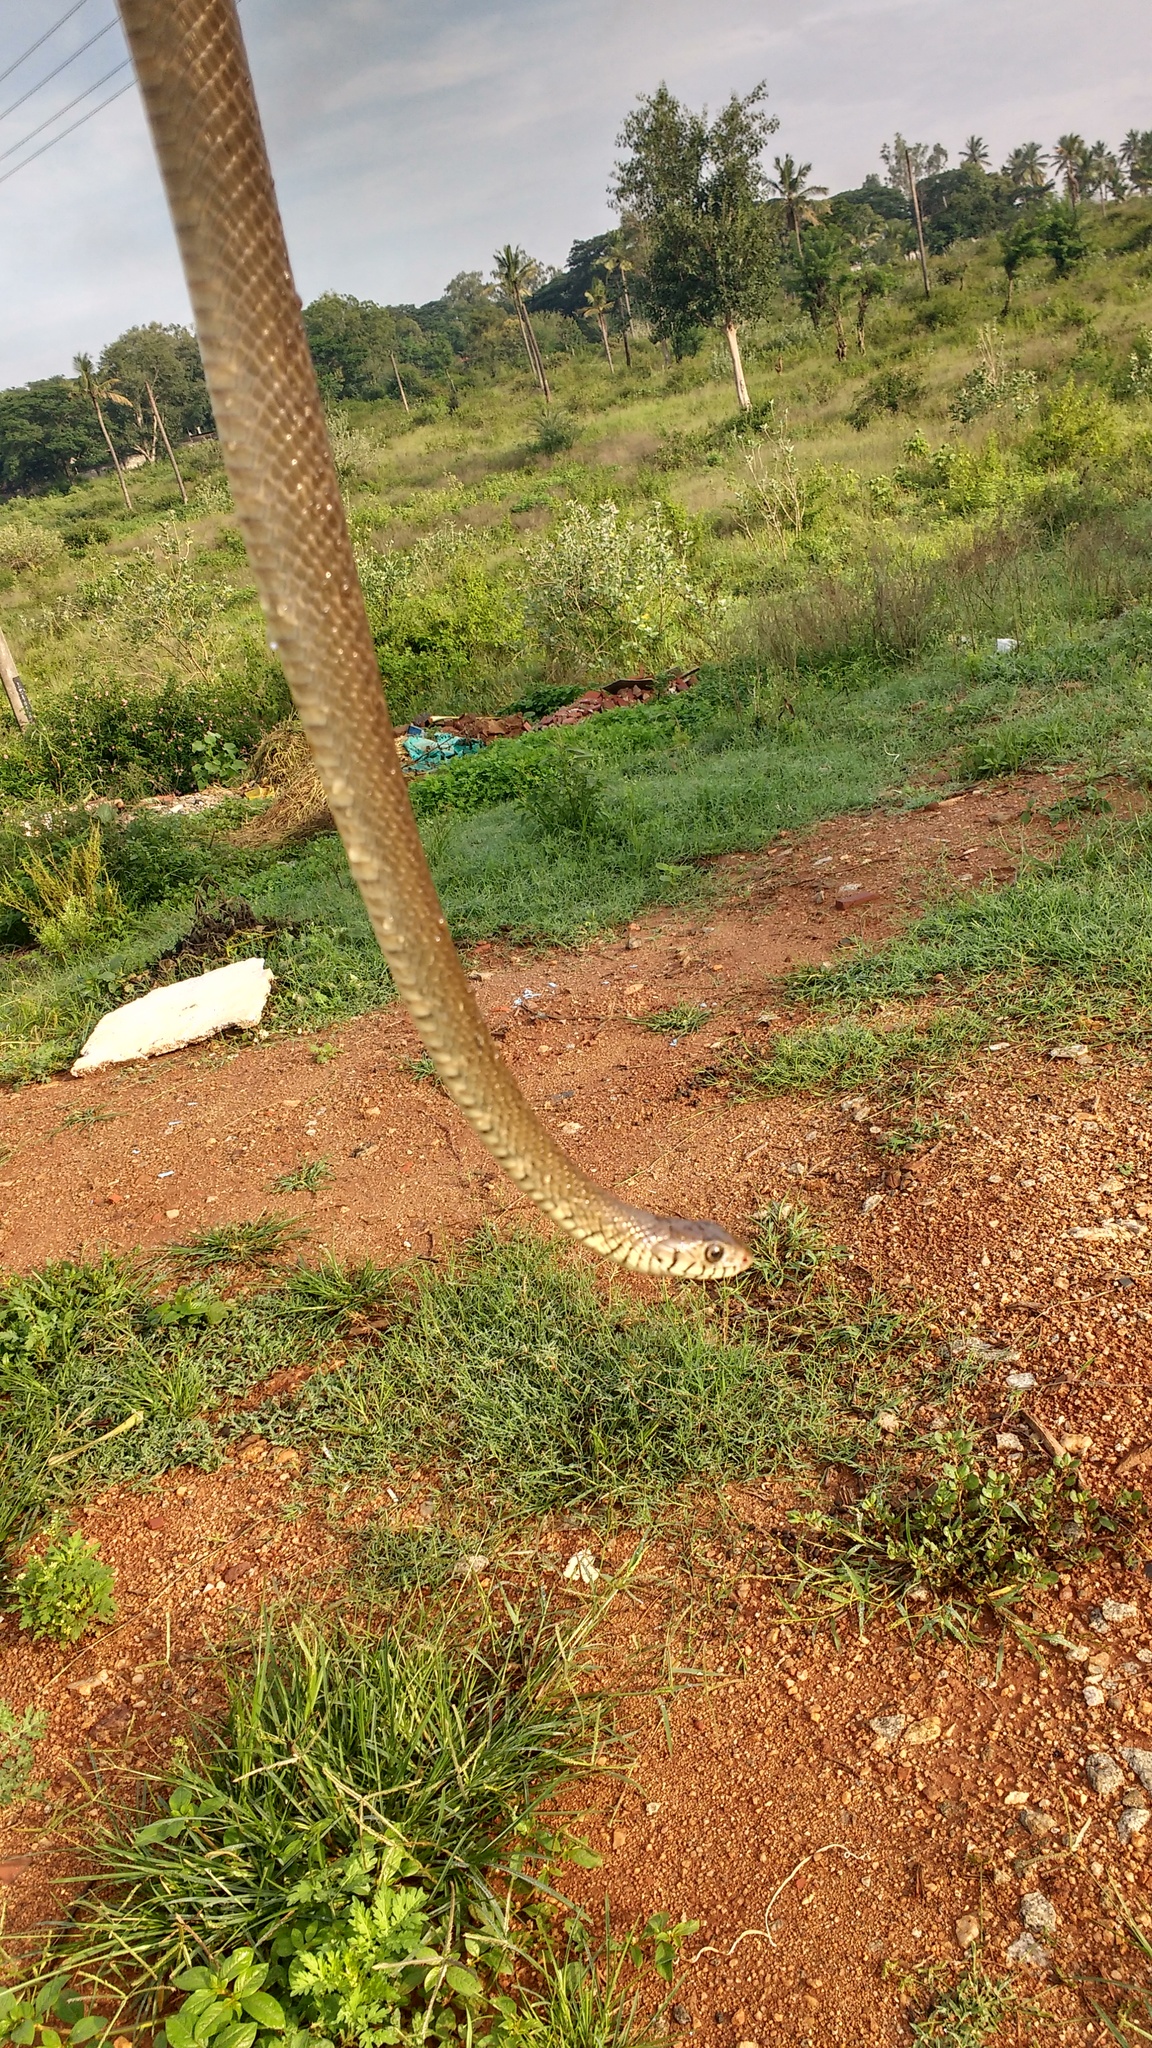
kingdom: Animalia
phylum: Chordata
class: Squamata
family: Colubridae
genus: Ptyas
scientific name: Ptyas mucosa
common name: Oriental ratsnake
